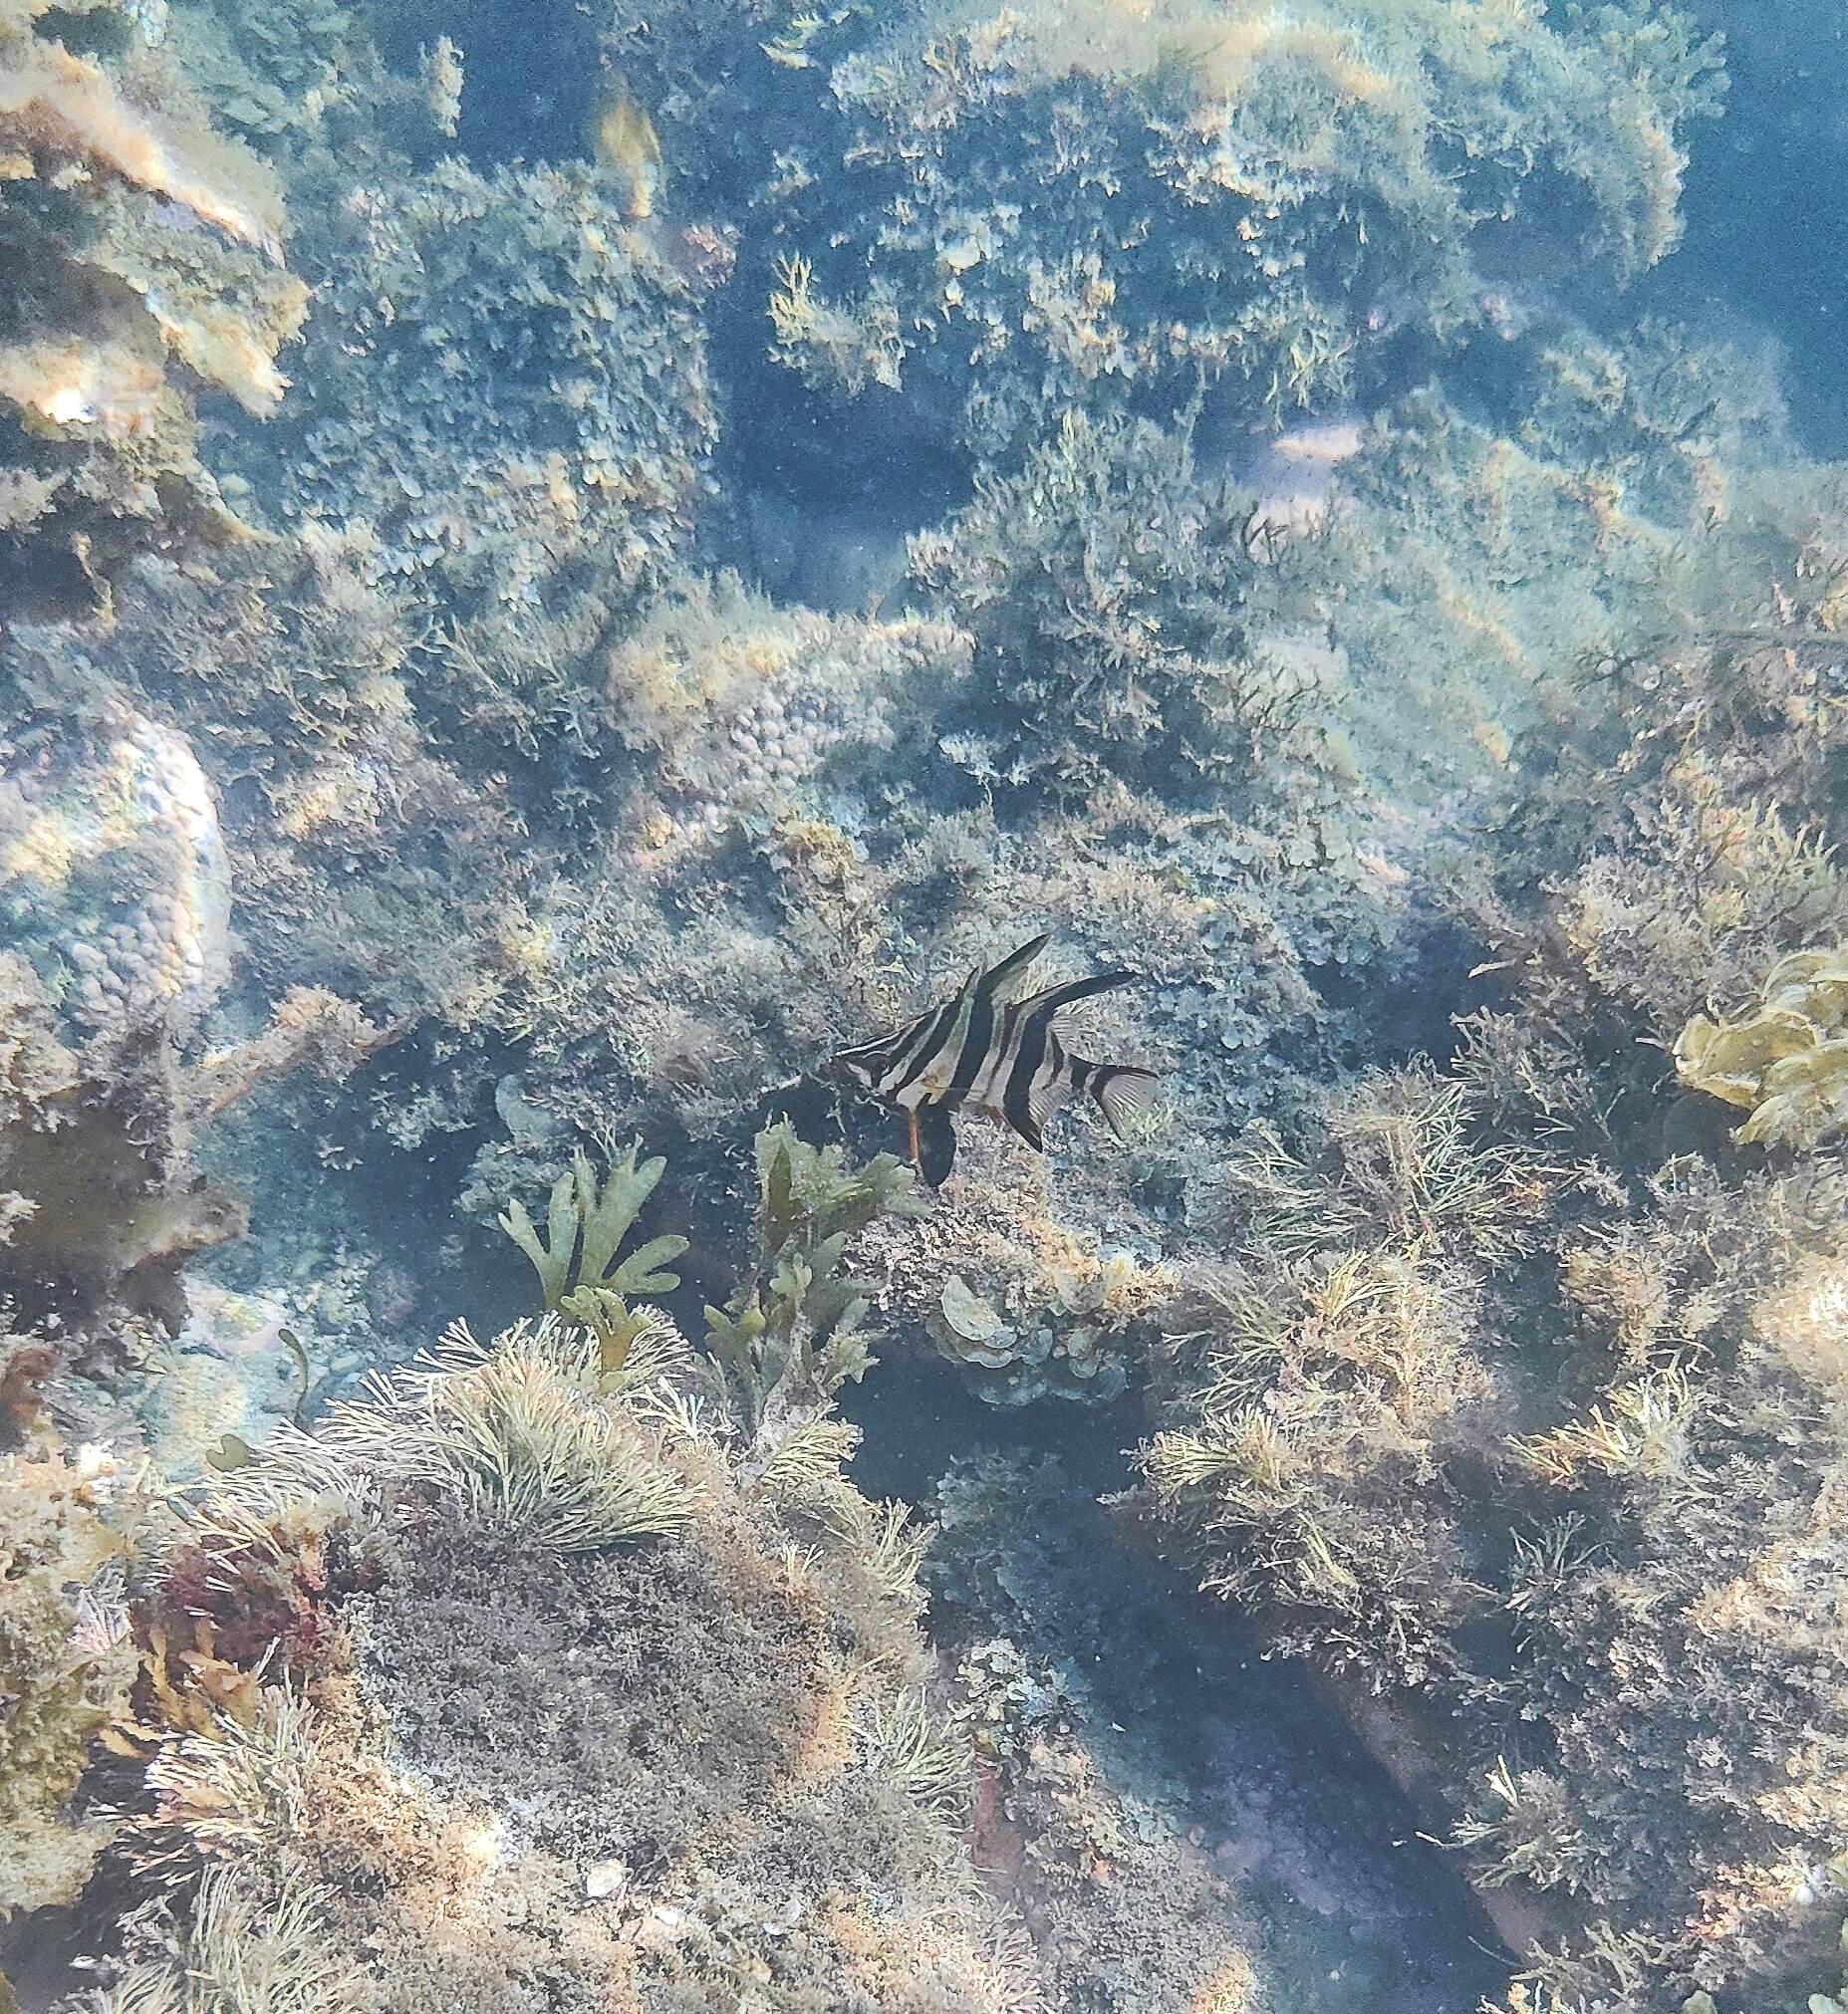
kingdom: Animalia
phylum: Chordata
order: Perciformes
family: Enoplosidae
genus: Enoplosus
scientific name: Enoplosus armatus
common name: Old wife
